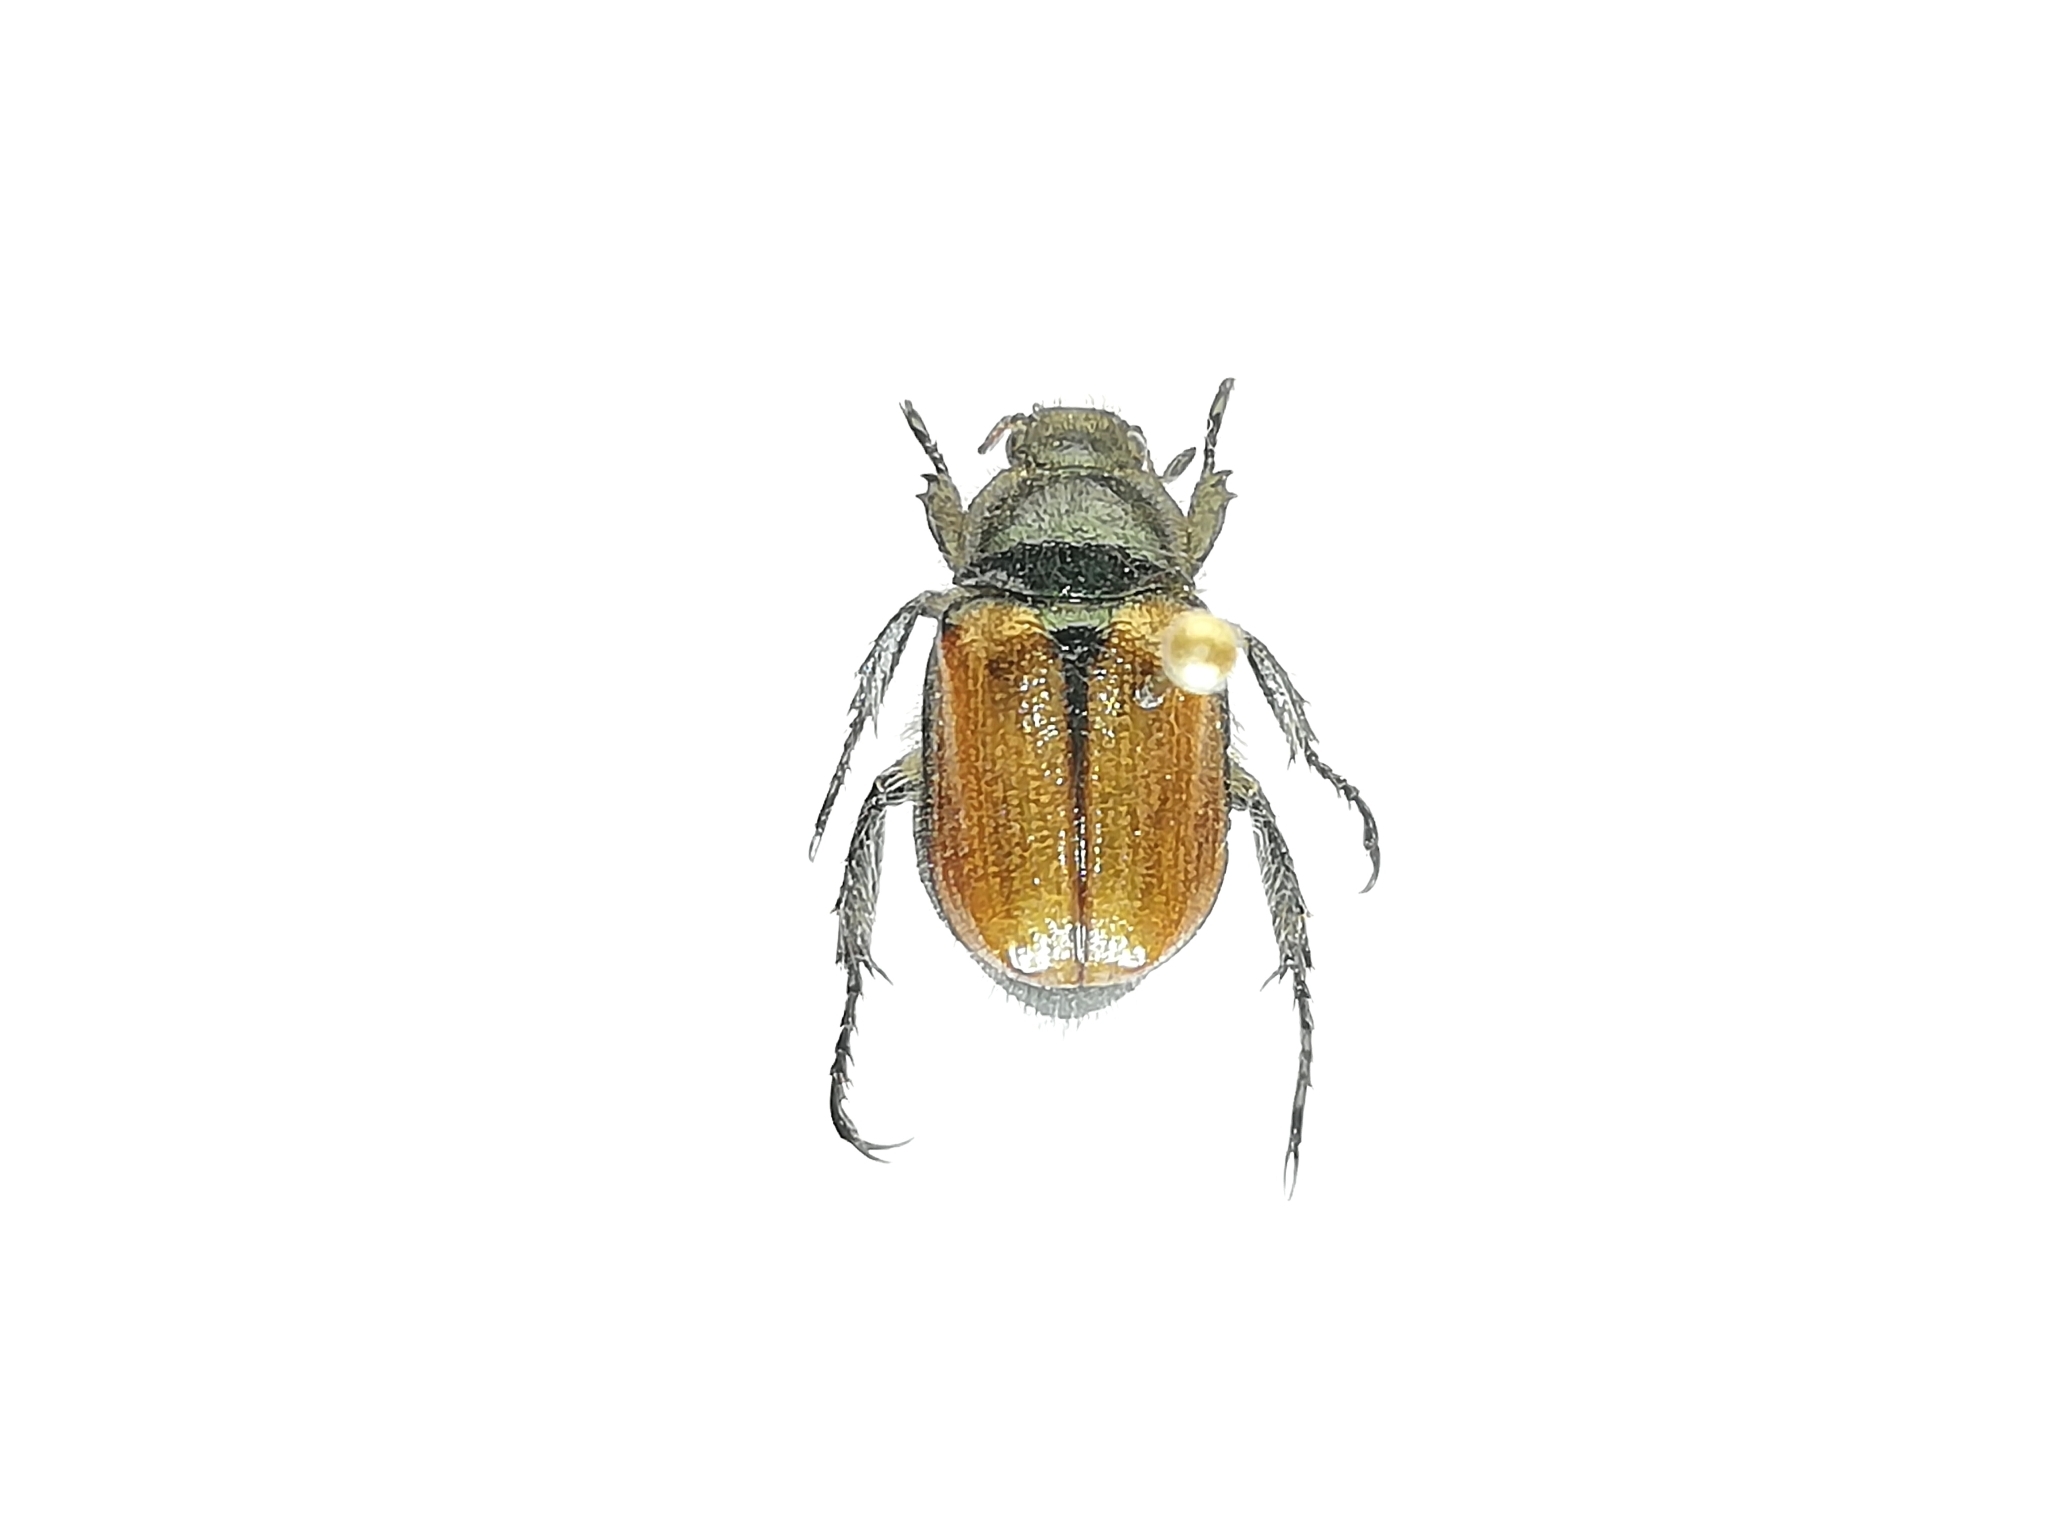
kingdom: Animalia
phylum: Arthropoda
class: Insecta
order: Coleoptera
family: Scarabaeidae
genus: Phyllopertha
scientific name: Phyllopertha horticola
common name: Garden chafer
